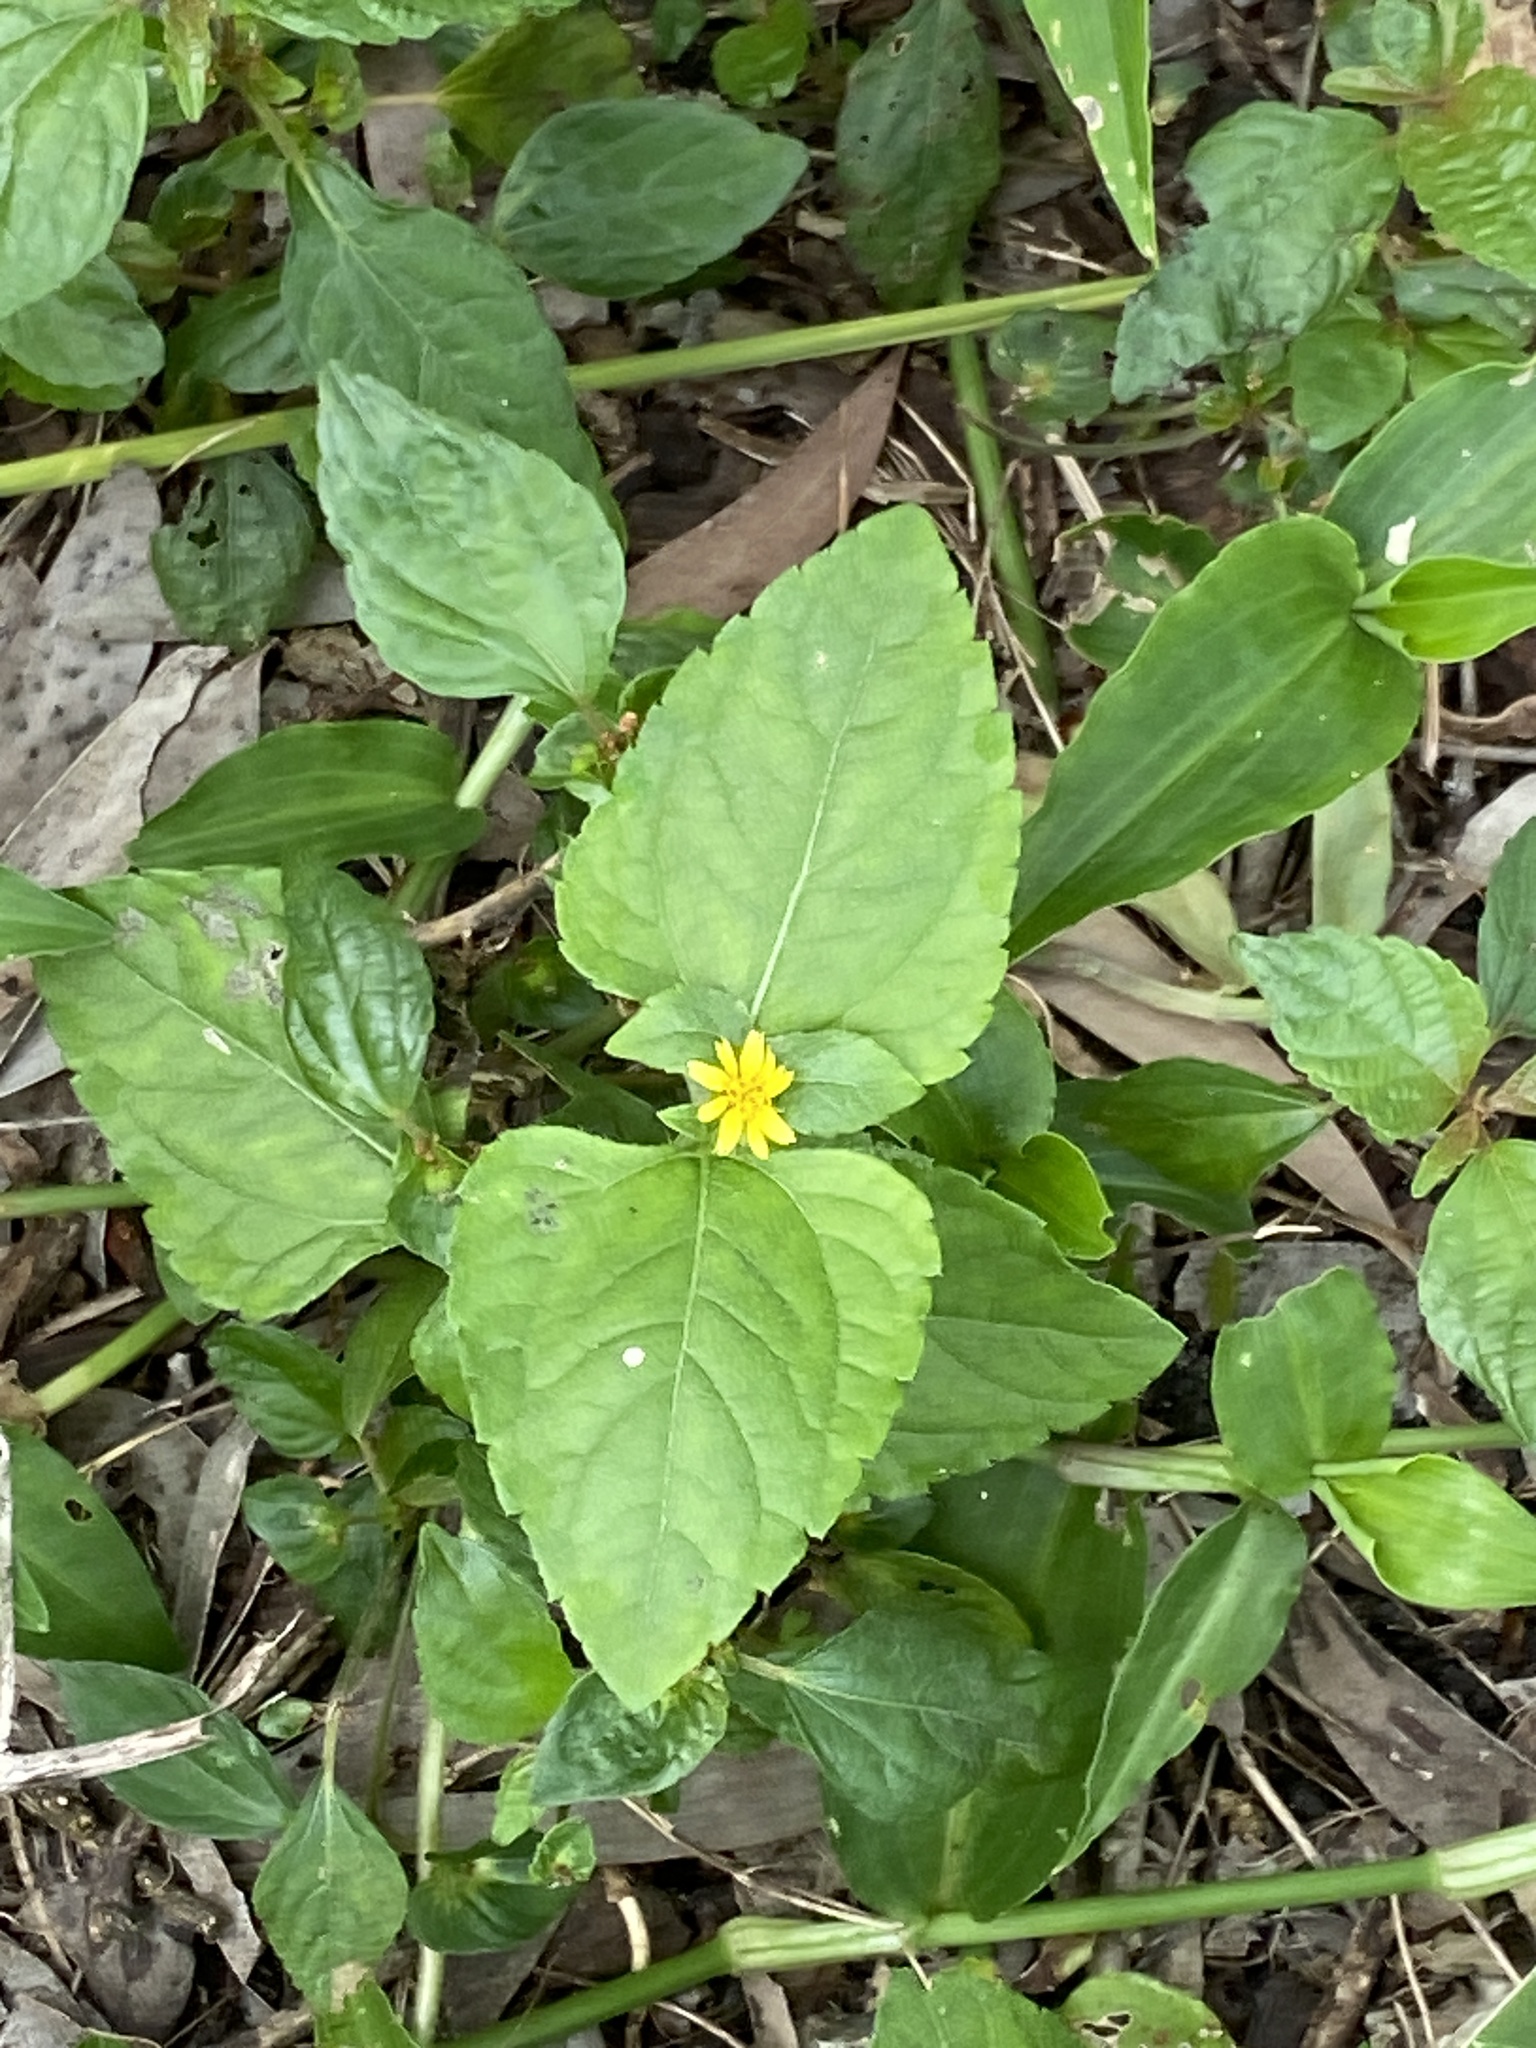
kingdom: Plantae
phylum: Tracheophyta
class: Magnoliopsida
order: Asterales
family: Asteraceae
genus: Calyptocarpus
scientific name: Calyptocarpus vialis
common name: Straggler daisy
